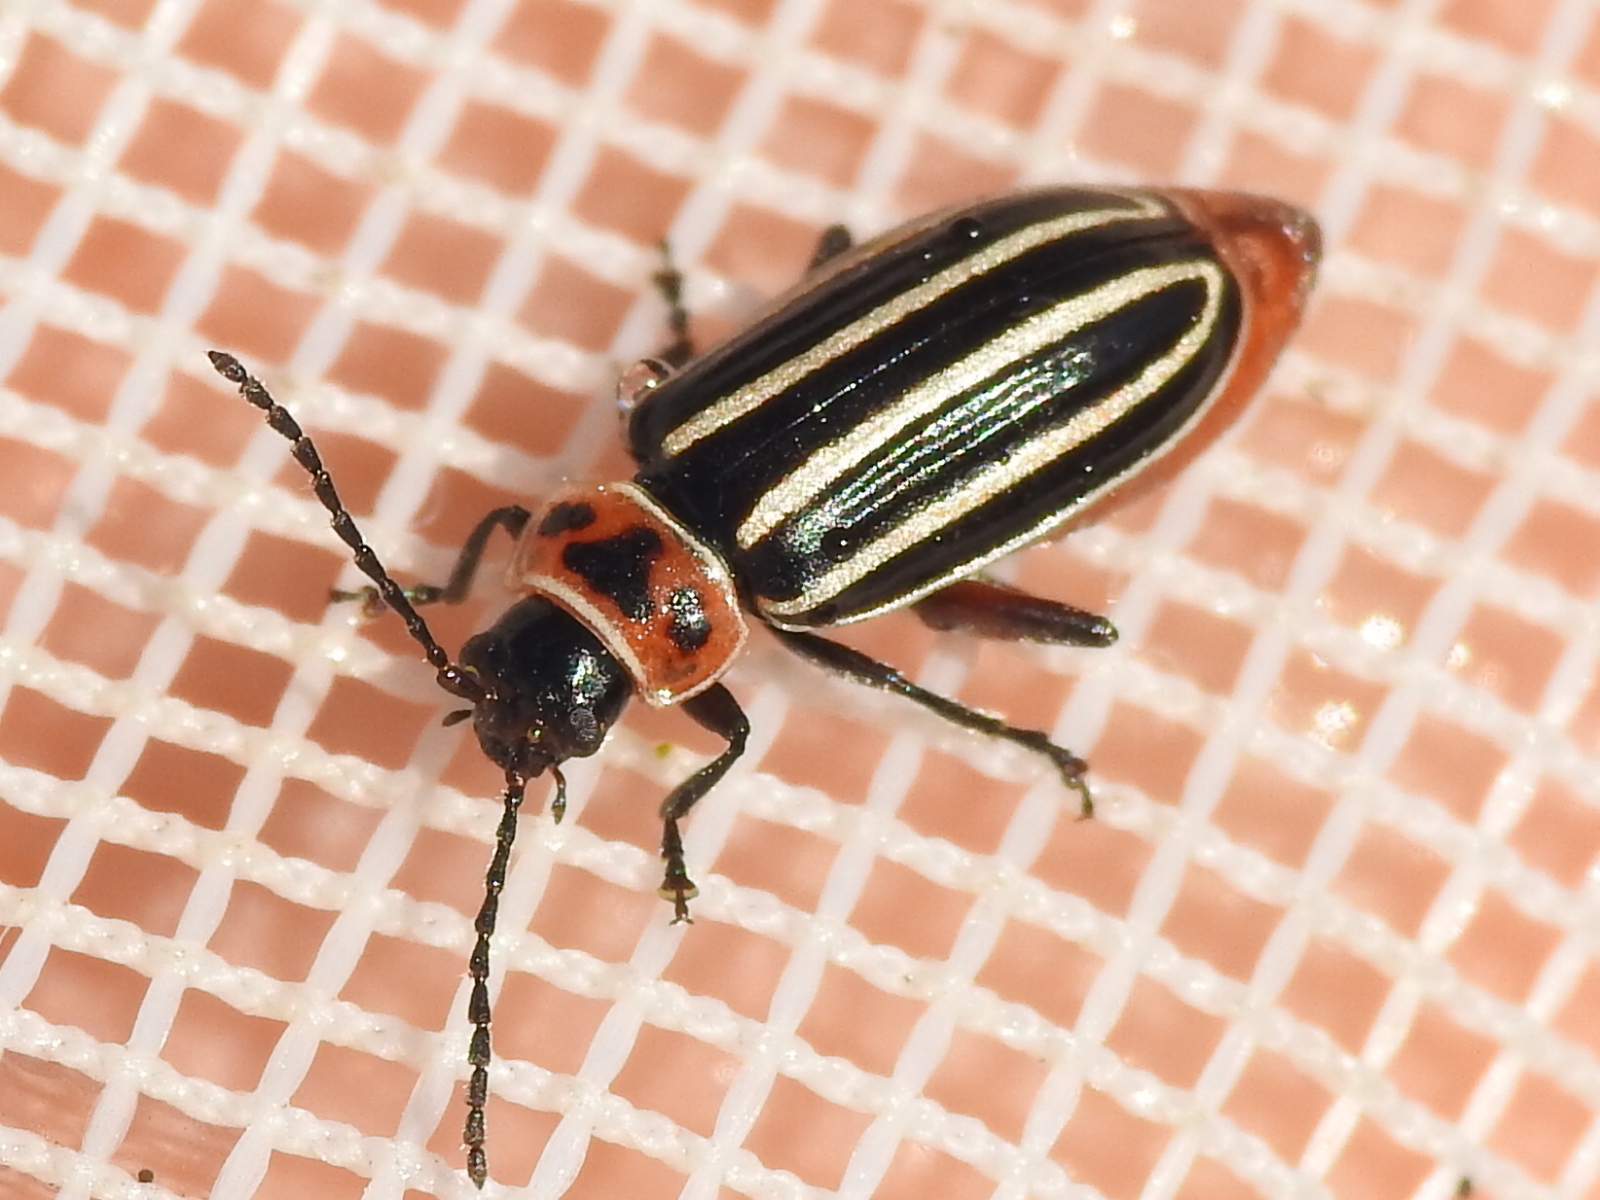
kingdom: Animalia
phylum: Arthropoda
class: Insecta
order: Coleoptera
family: Chrysomelidae
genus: Disonycha
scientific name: Disonycha procera
